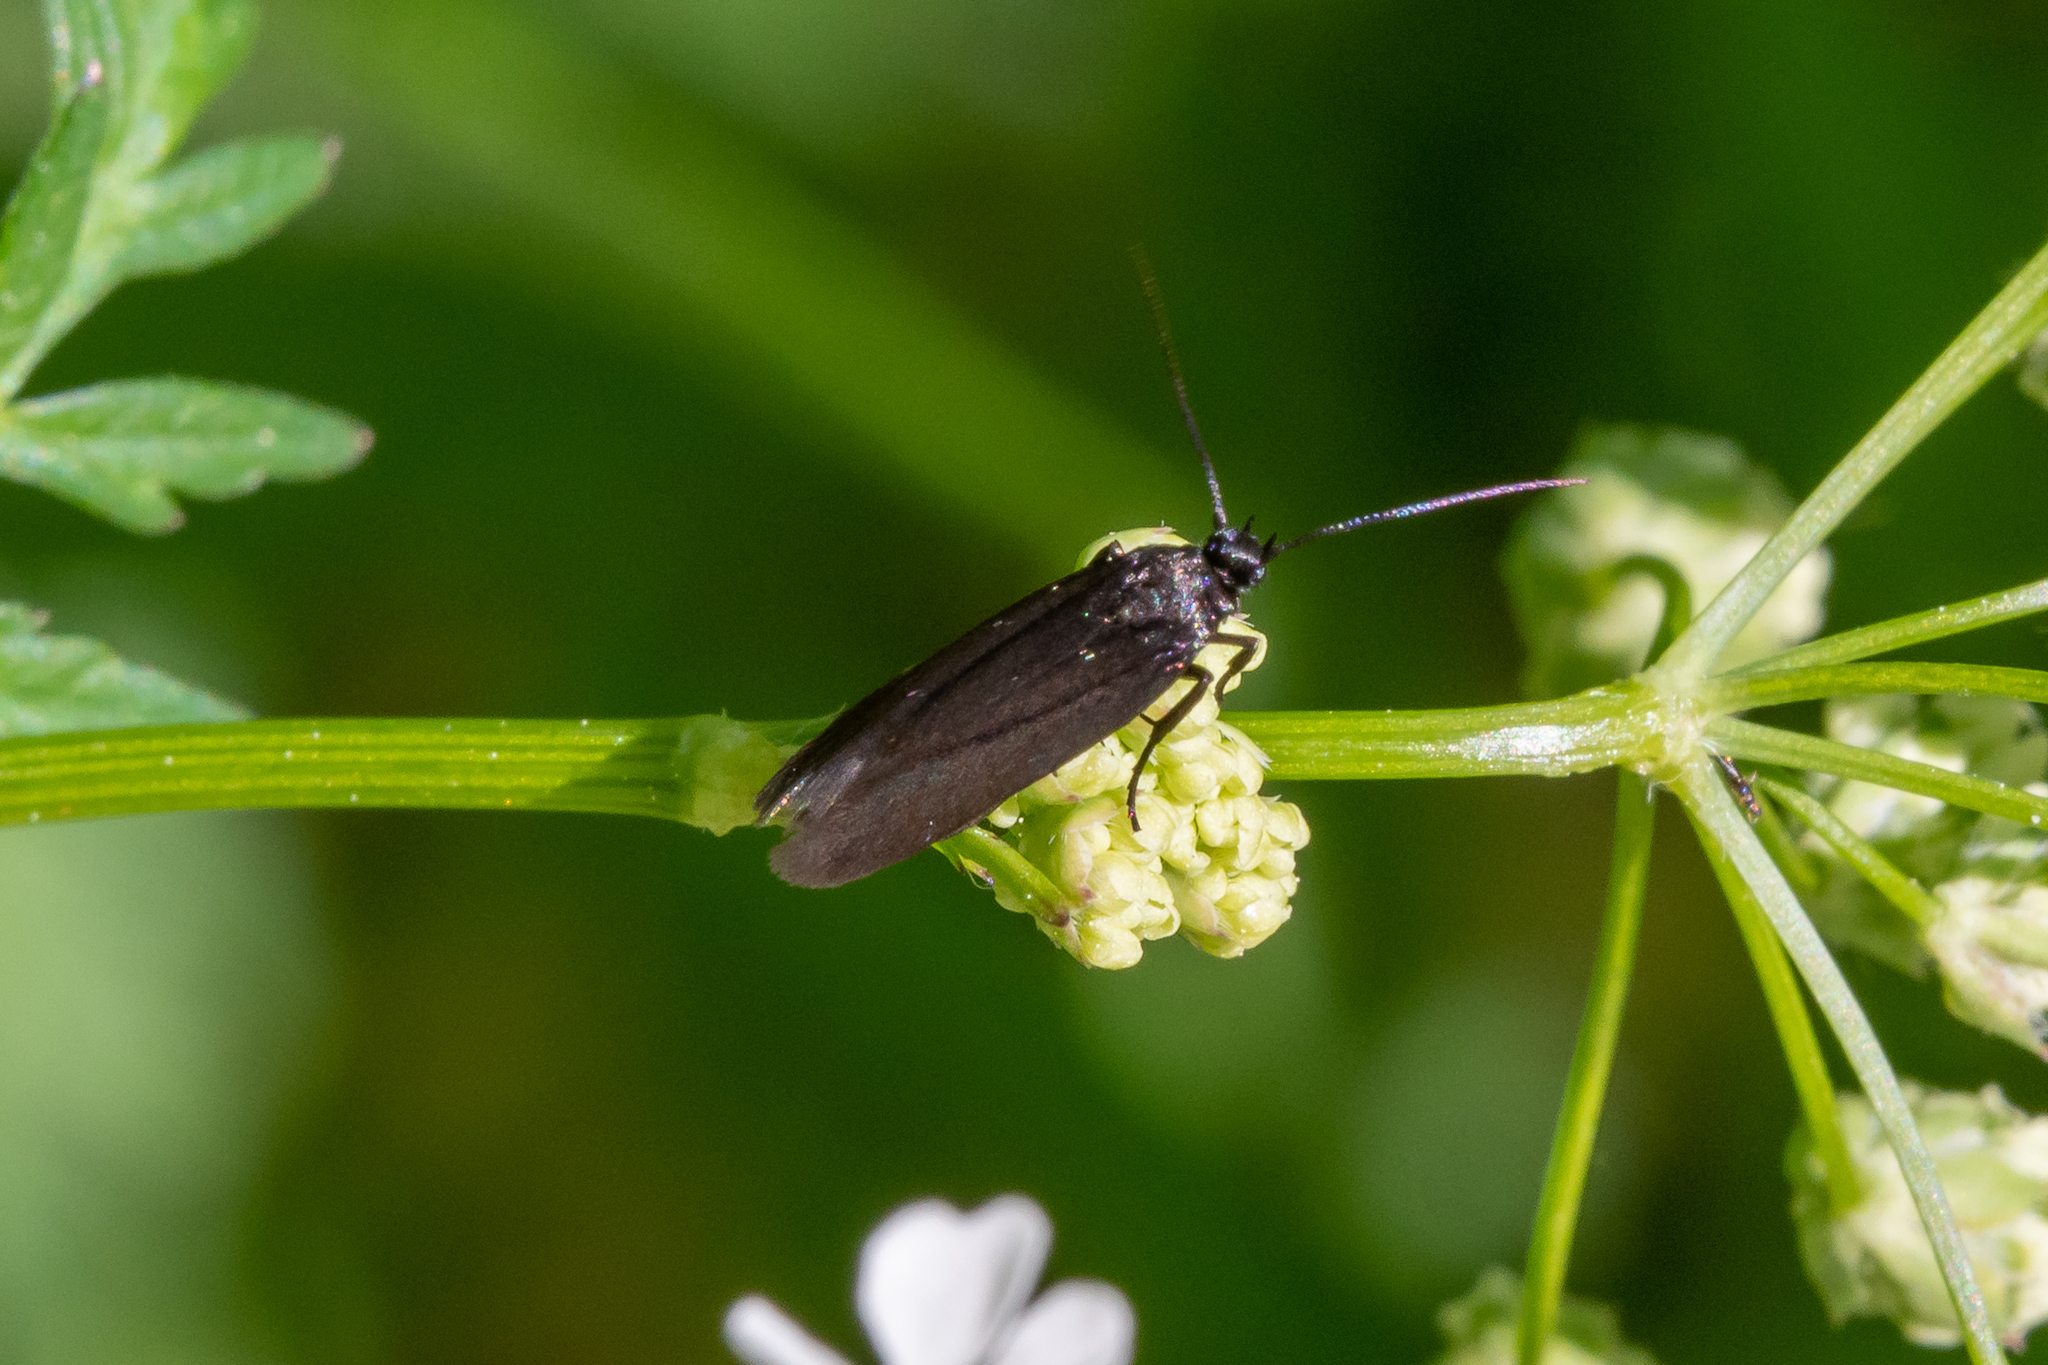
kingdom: Animalia
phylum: Arthropoda
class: Insecta
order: Lepidoptera
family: Scythrididae
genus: Scythris
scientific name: Scythris sinensis
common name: Kentish owlet
